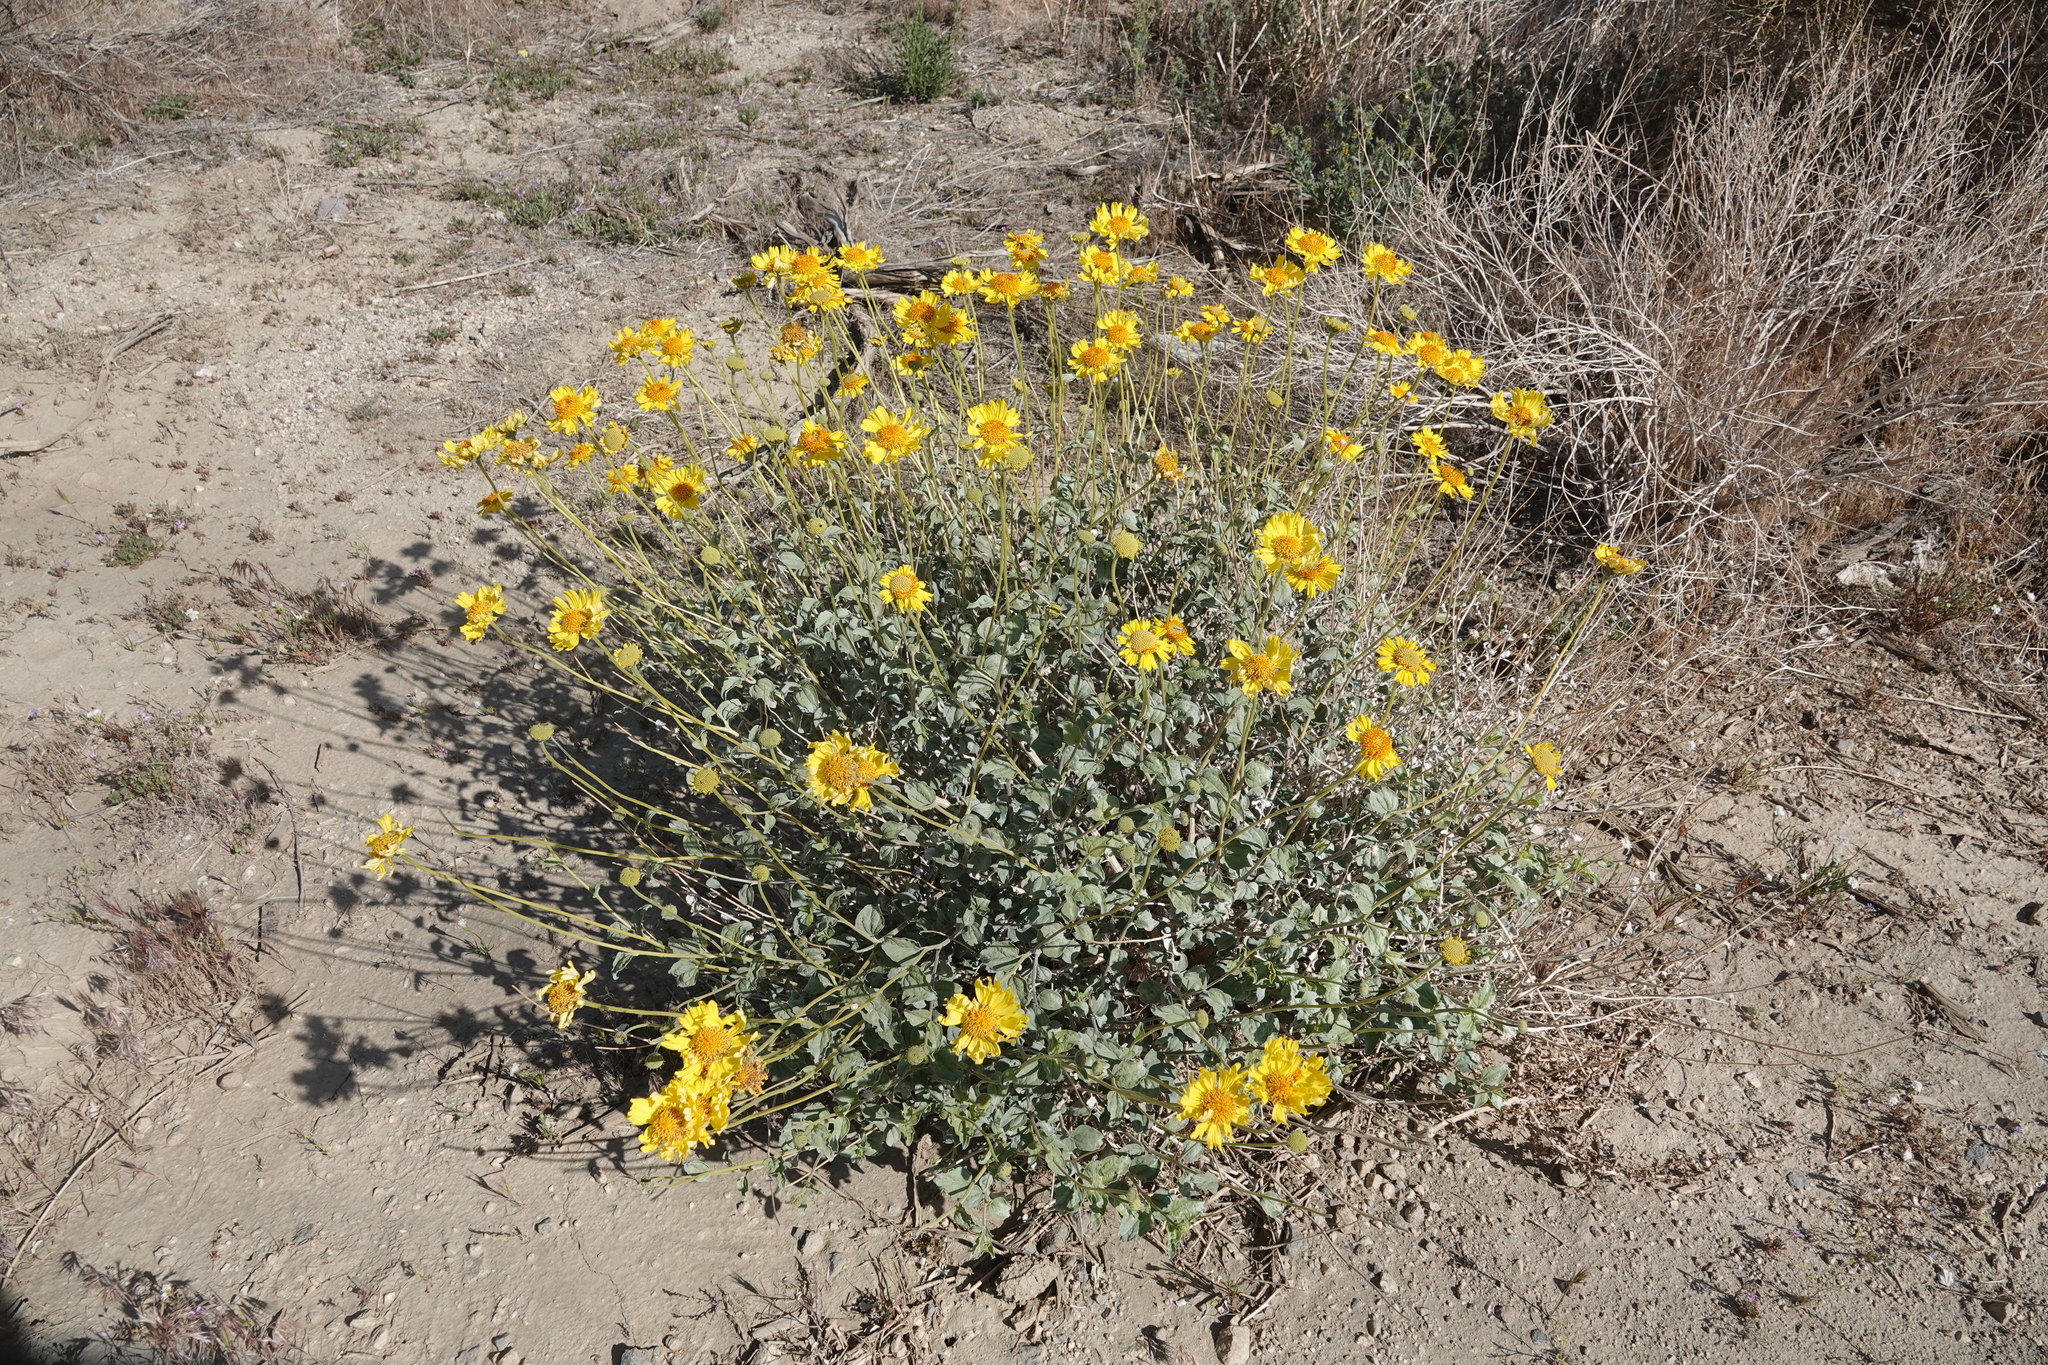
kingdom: Plantae
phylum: Tracheophyta
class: Magnoliopsida
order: Asterales
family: Asteraceae
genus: Encelia
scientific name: Encelia farinosa
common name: Brittlebush
